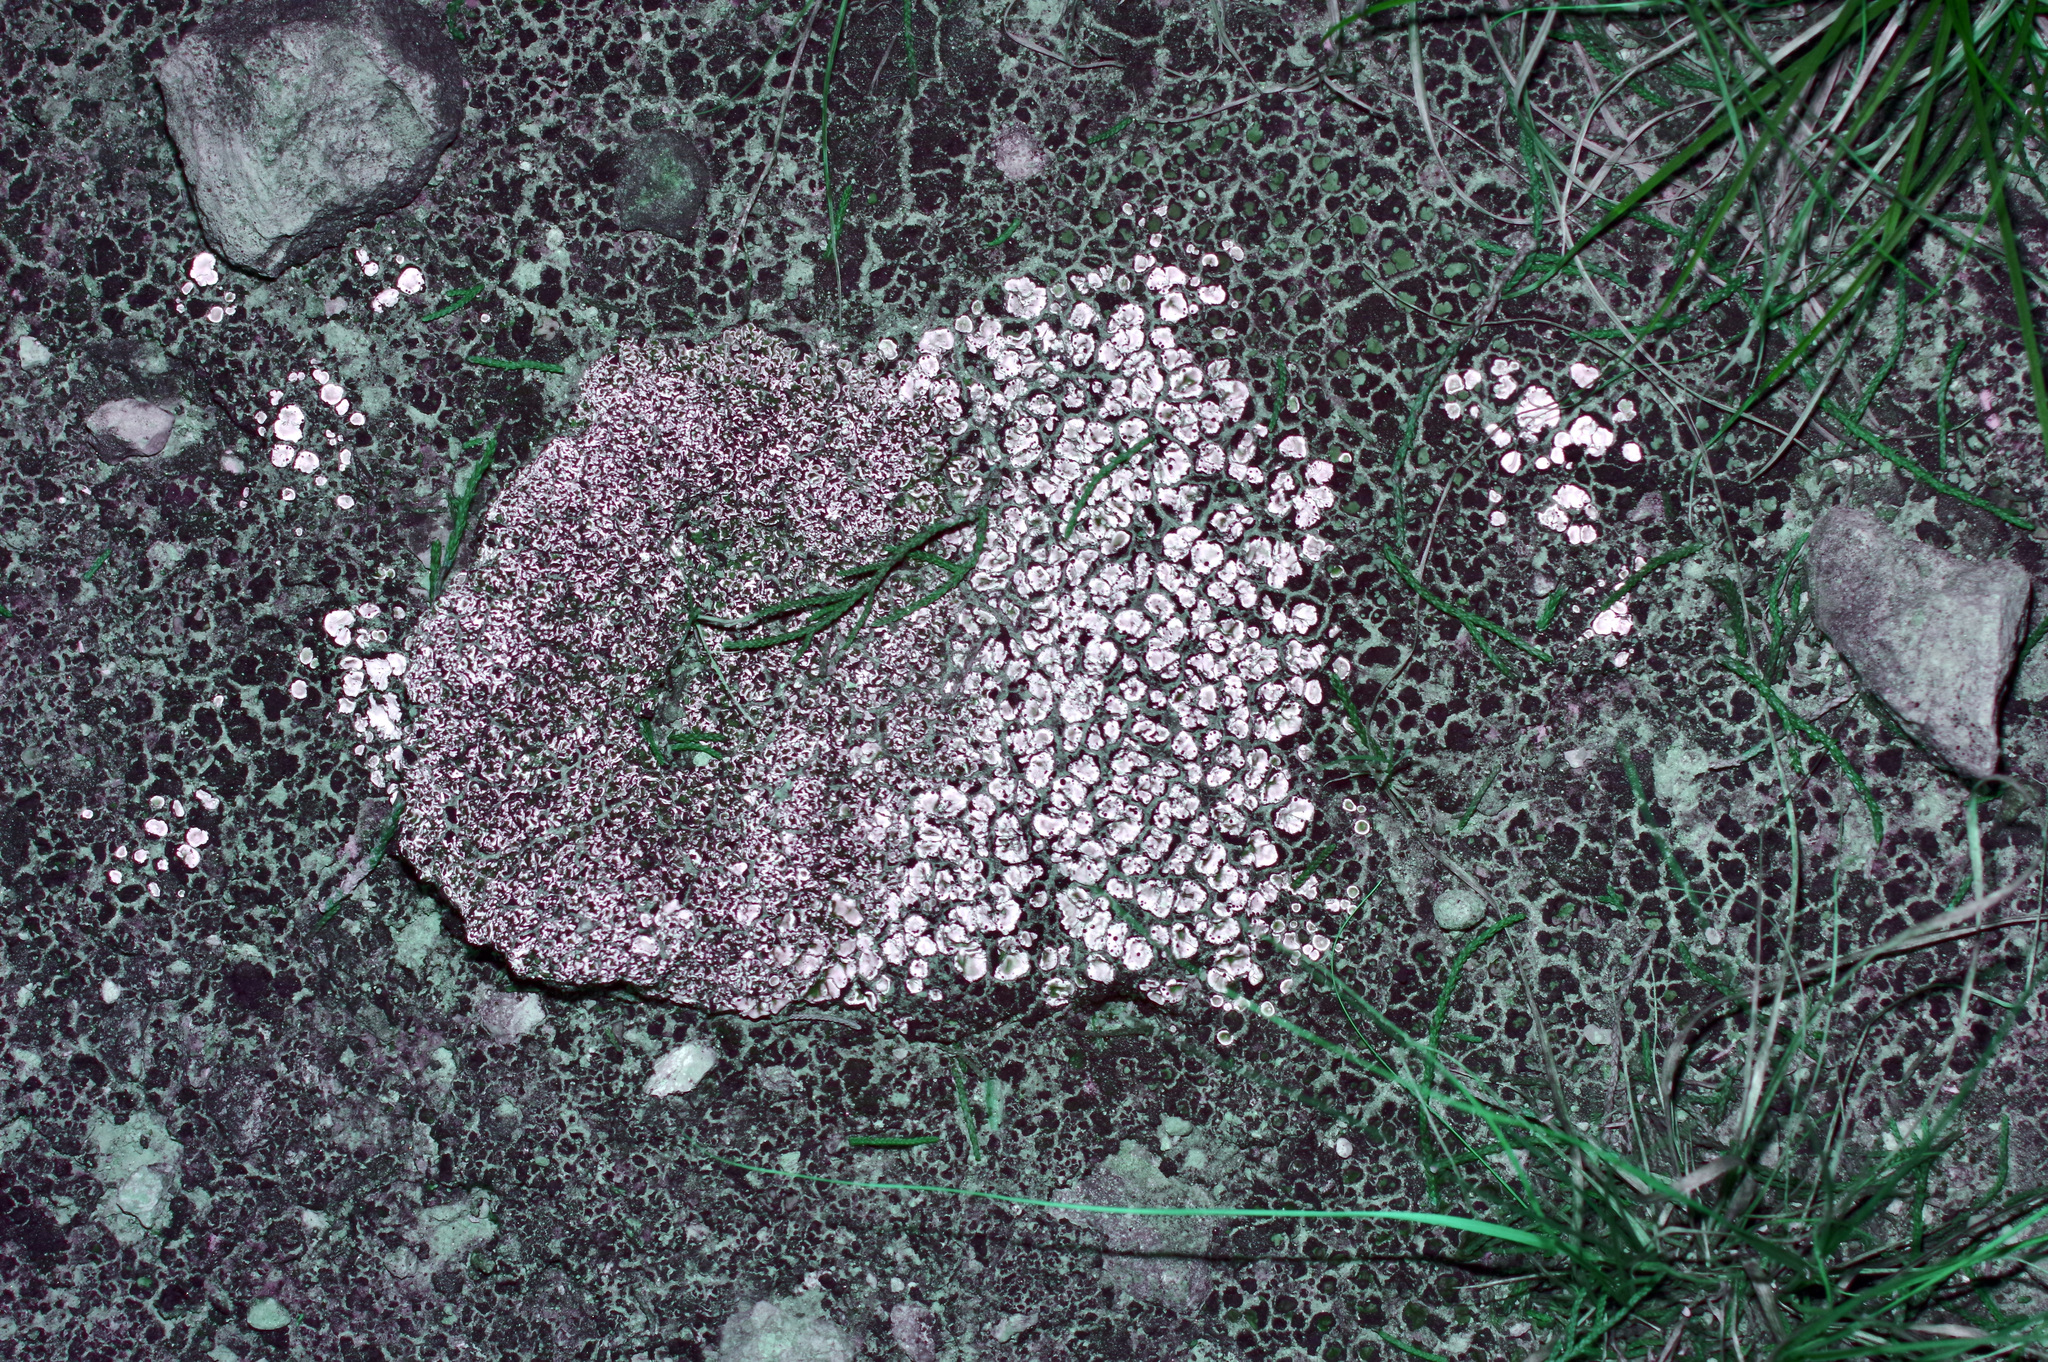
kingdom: Fungi
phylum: Ascomycota
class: Lecanoromycetes
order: Lecanorales
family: Psoraceae
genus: Psora
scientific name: Psora crenata
